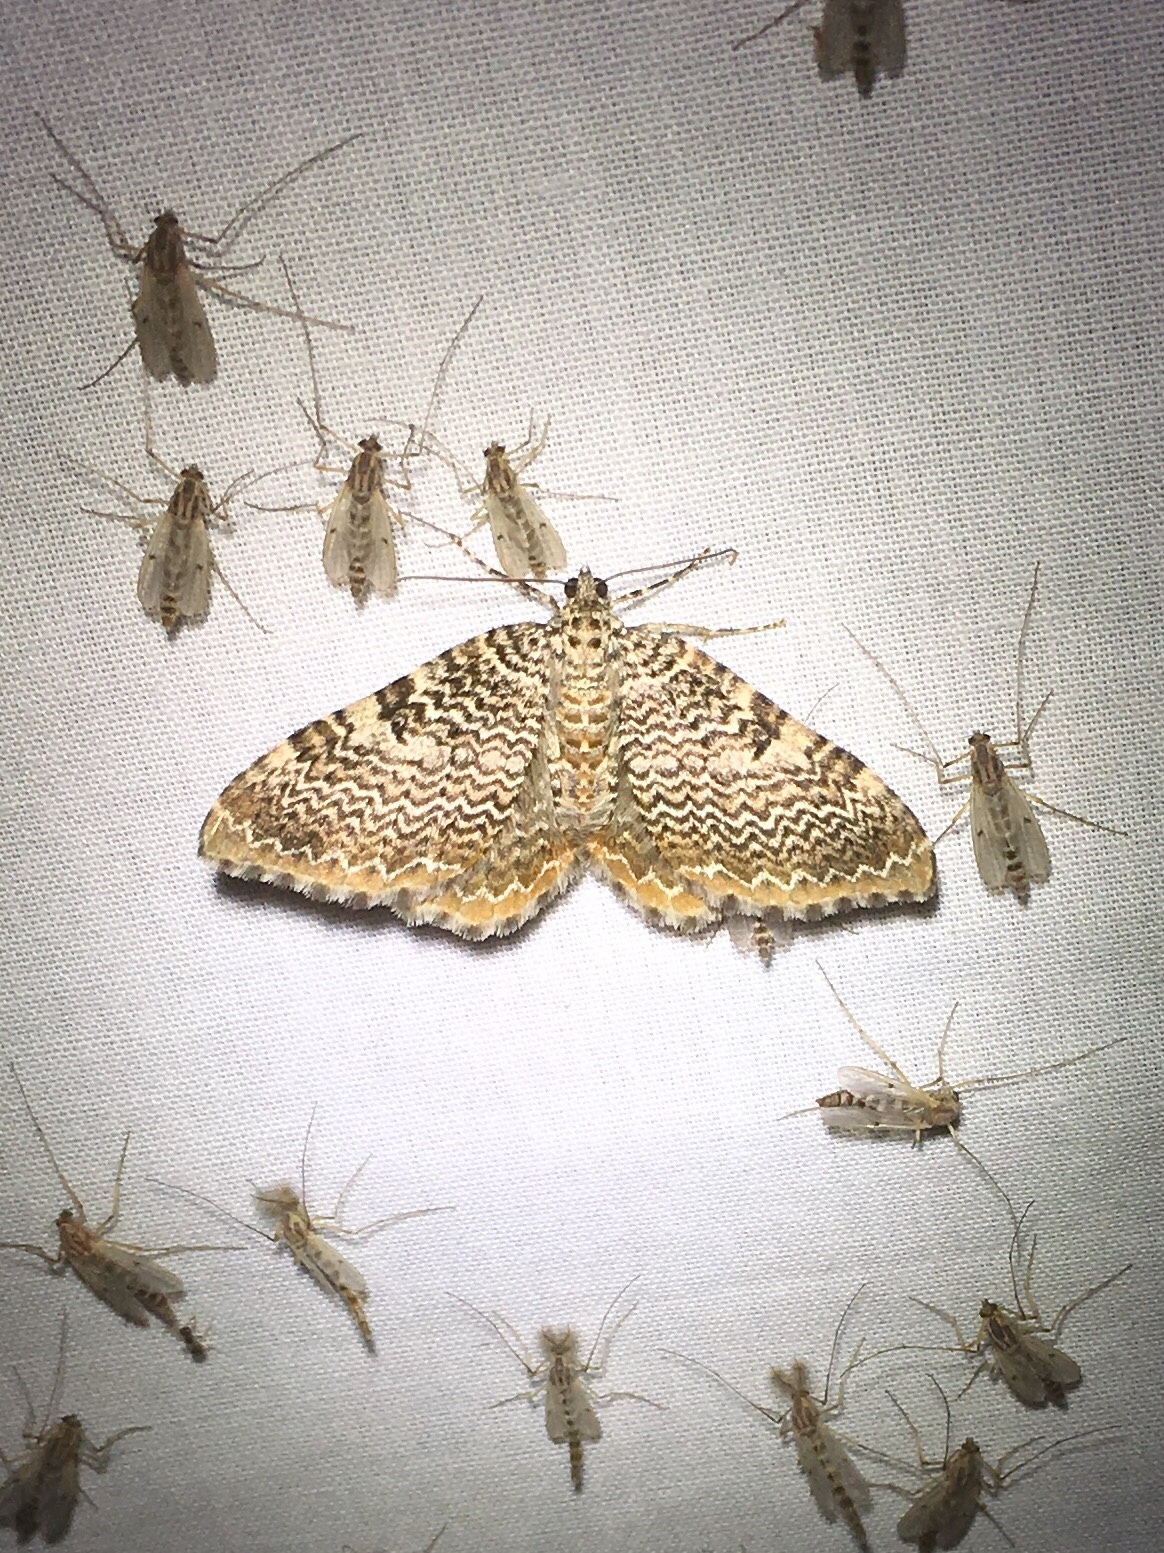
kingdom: Animalia
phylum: Arthropoda
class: Insecta
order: Lepidoptera
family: Geometridae
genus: Rheumaptera
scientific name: Rheumaptera prunivorata
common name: Cherry scallop shell moth
